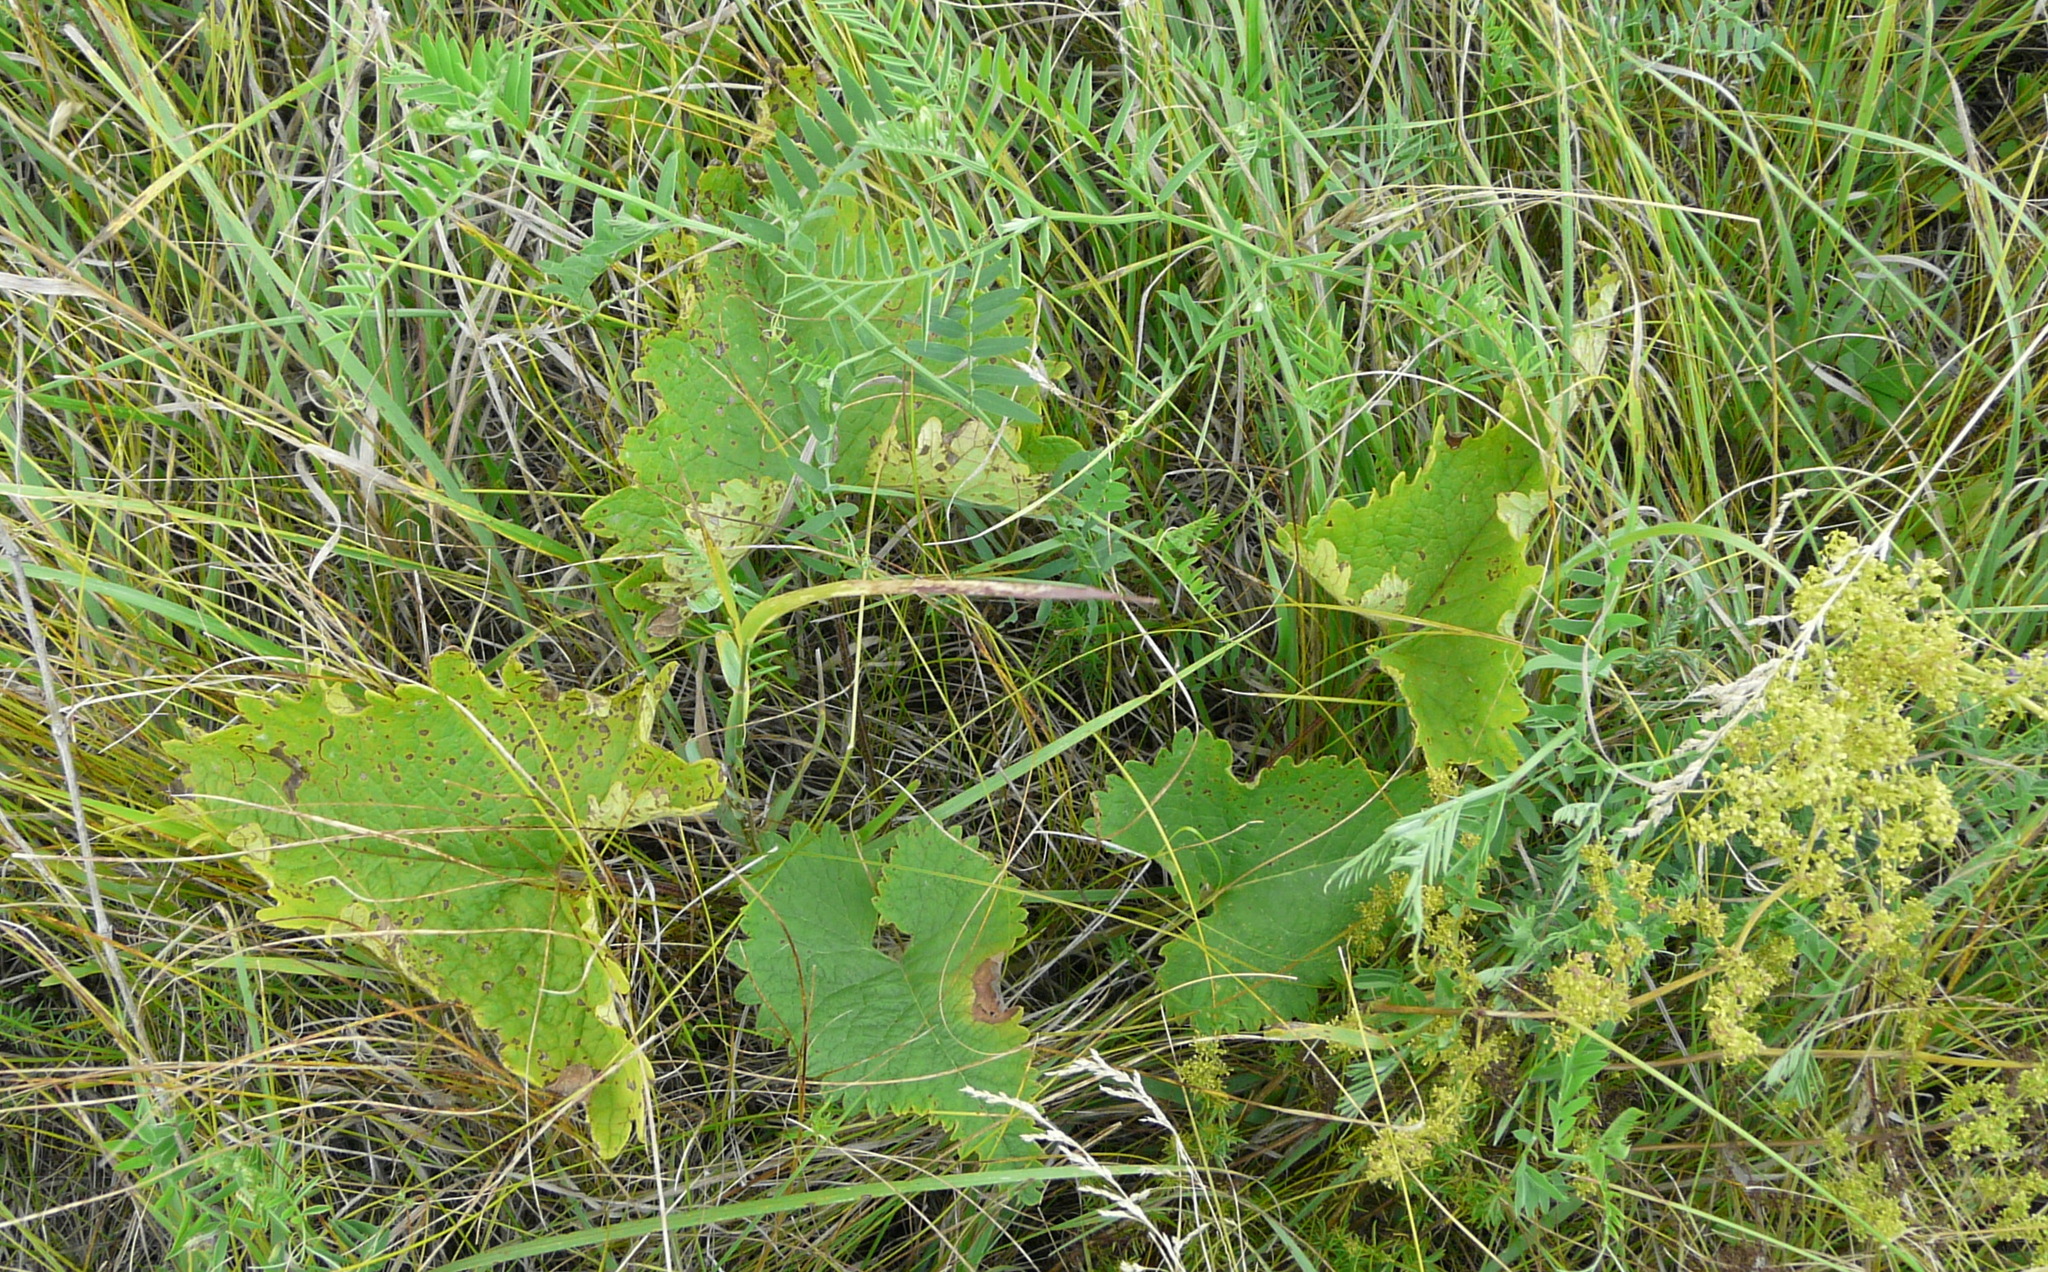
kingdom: Plantae
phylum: Tracheophyta
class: Magnoliopsida
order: Lamiales
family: Lamiaceae
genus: Phlomoides
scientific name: Phlomoides tuberosa
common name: Tuberous jerusalem sage
